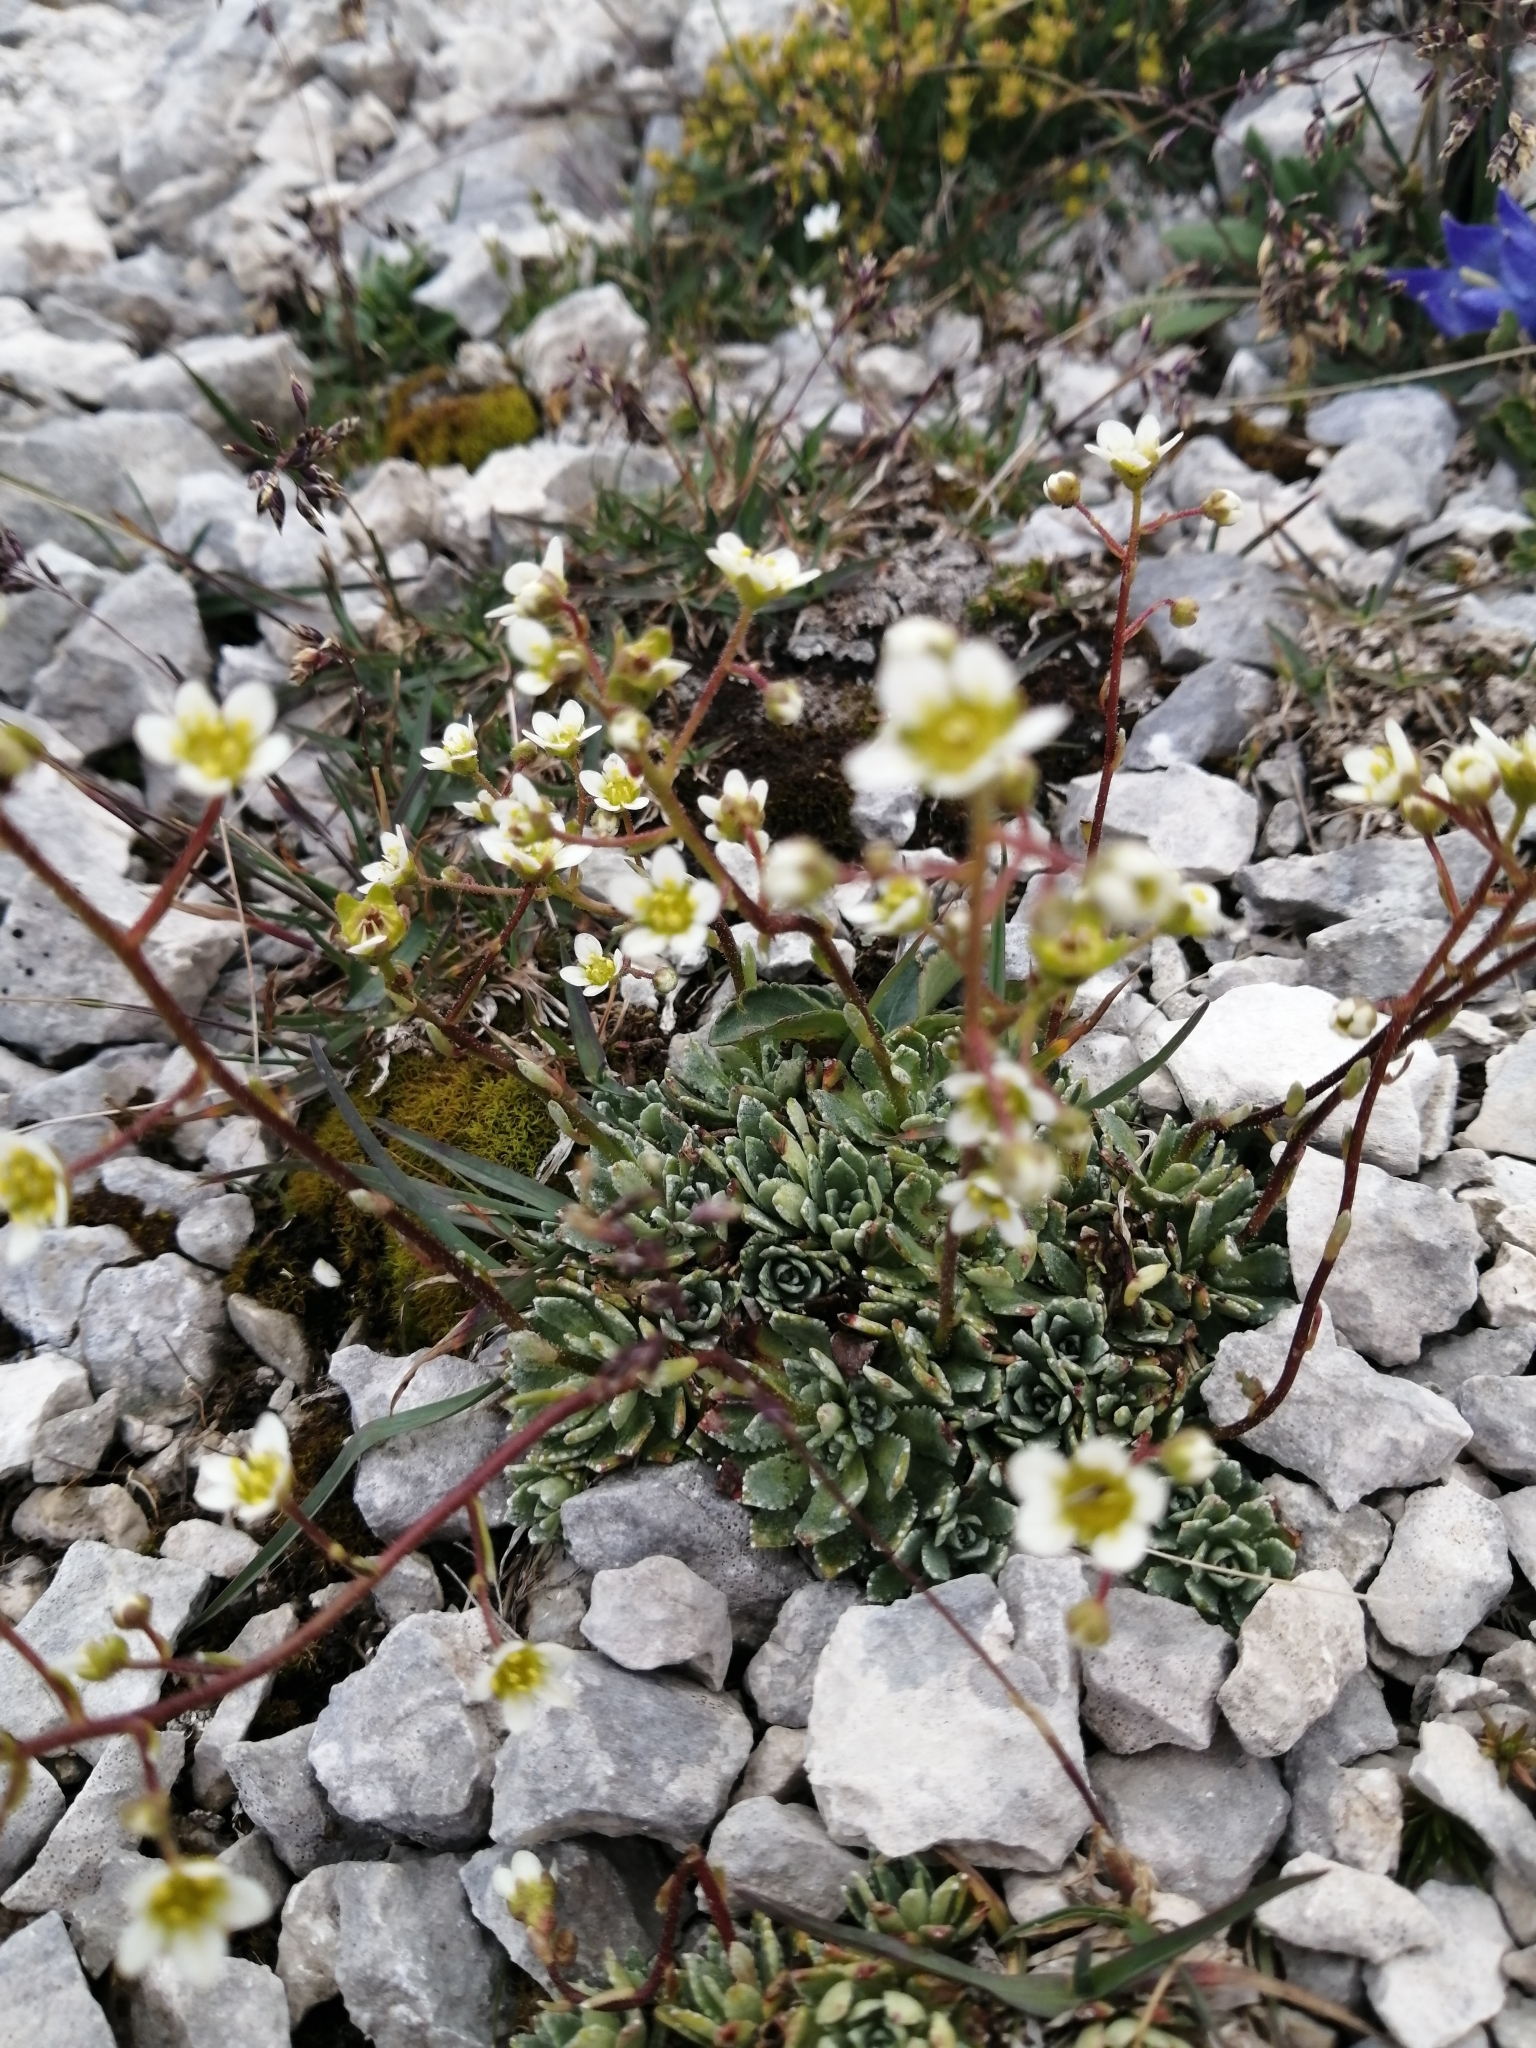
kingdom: Plantae
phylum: Tracheophyta
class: Magnoliopsida
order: Saxifragales
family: Saxifragaceae
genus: Saxifraga
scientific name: Saxifraga paniculata
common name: Livelong saxifrage
